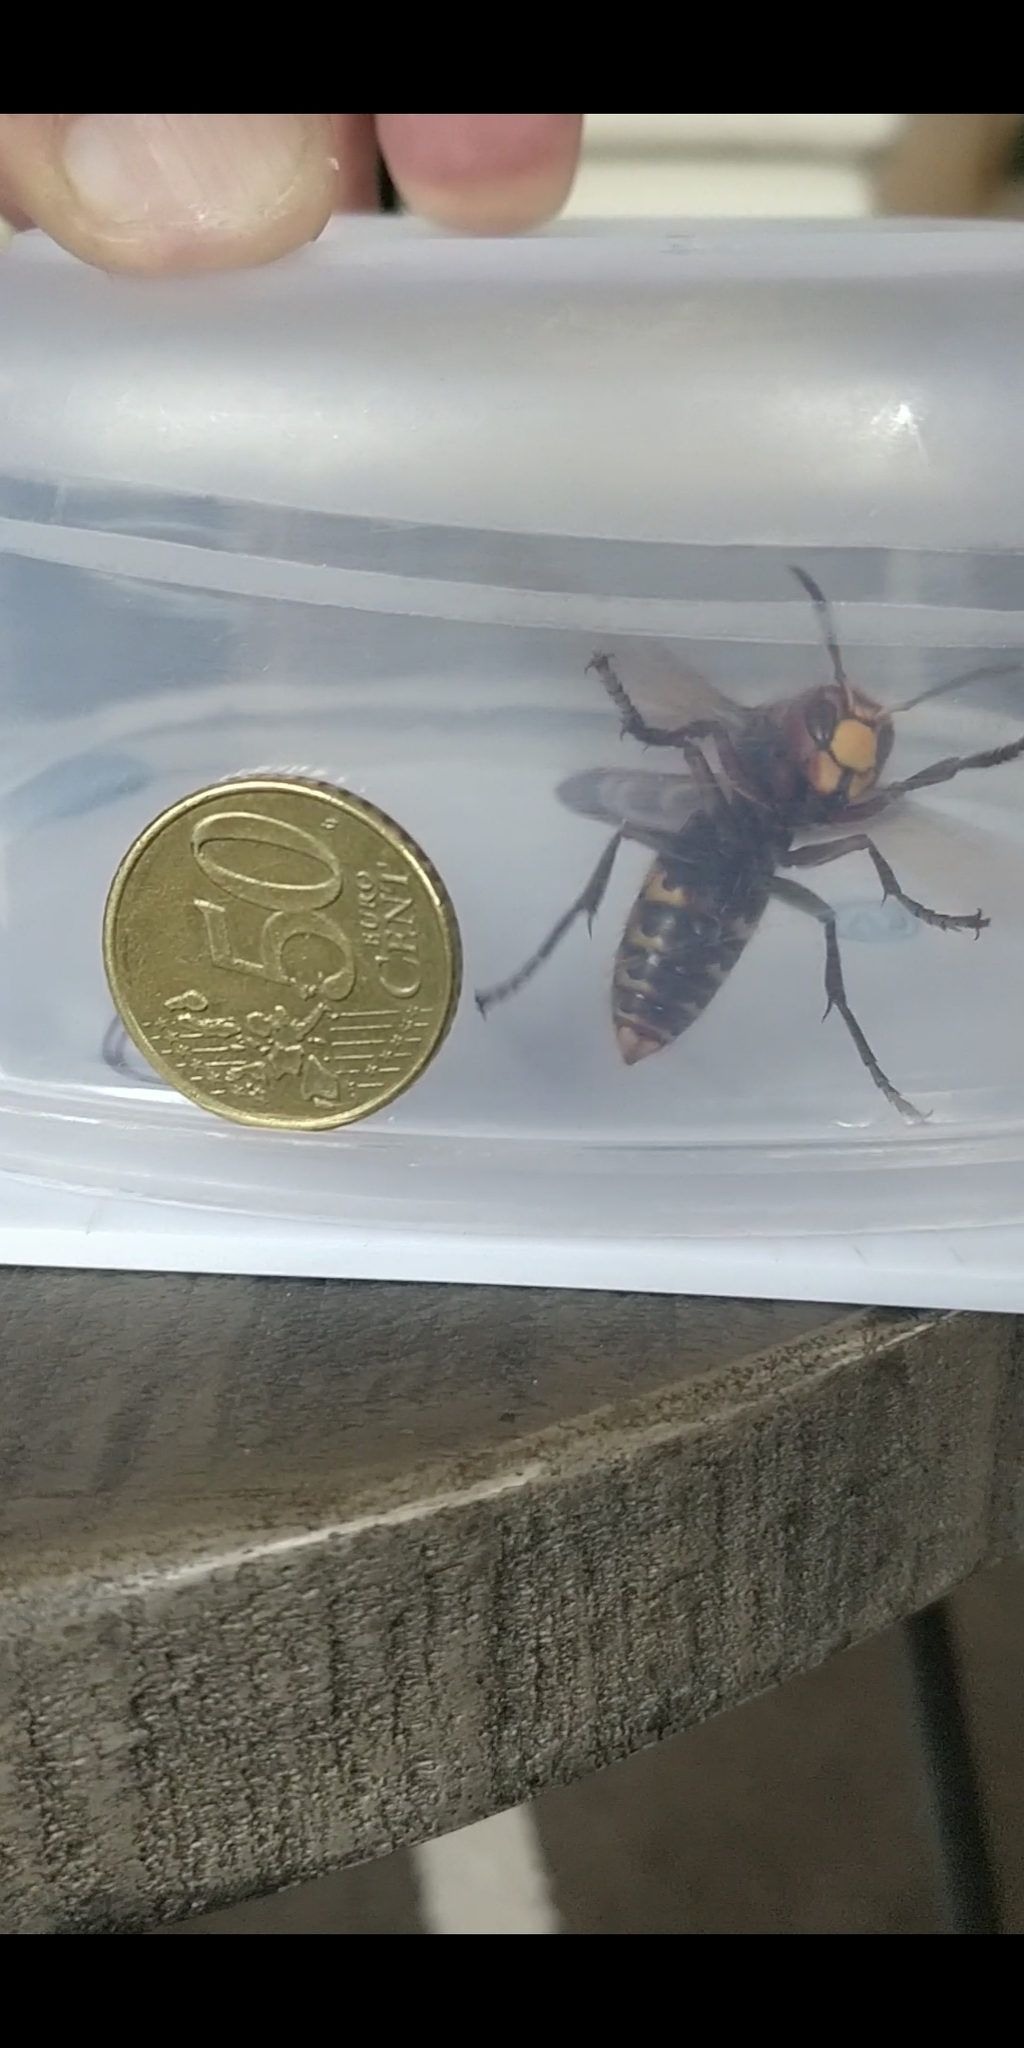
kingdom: Animalia
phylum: Arthropoda
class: Insecta
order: Hymenoptera
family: Vespidae
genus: Vespa
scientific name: Vespa crabro
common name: Hornet
